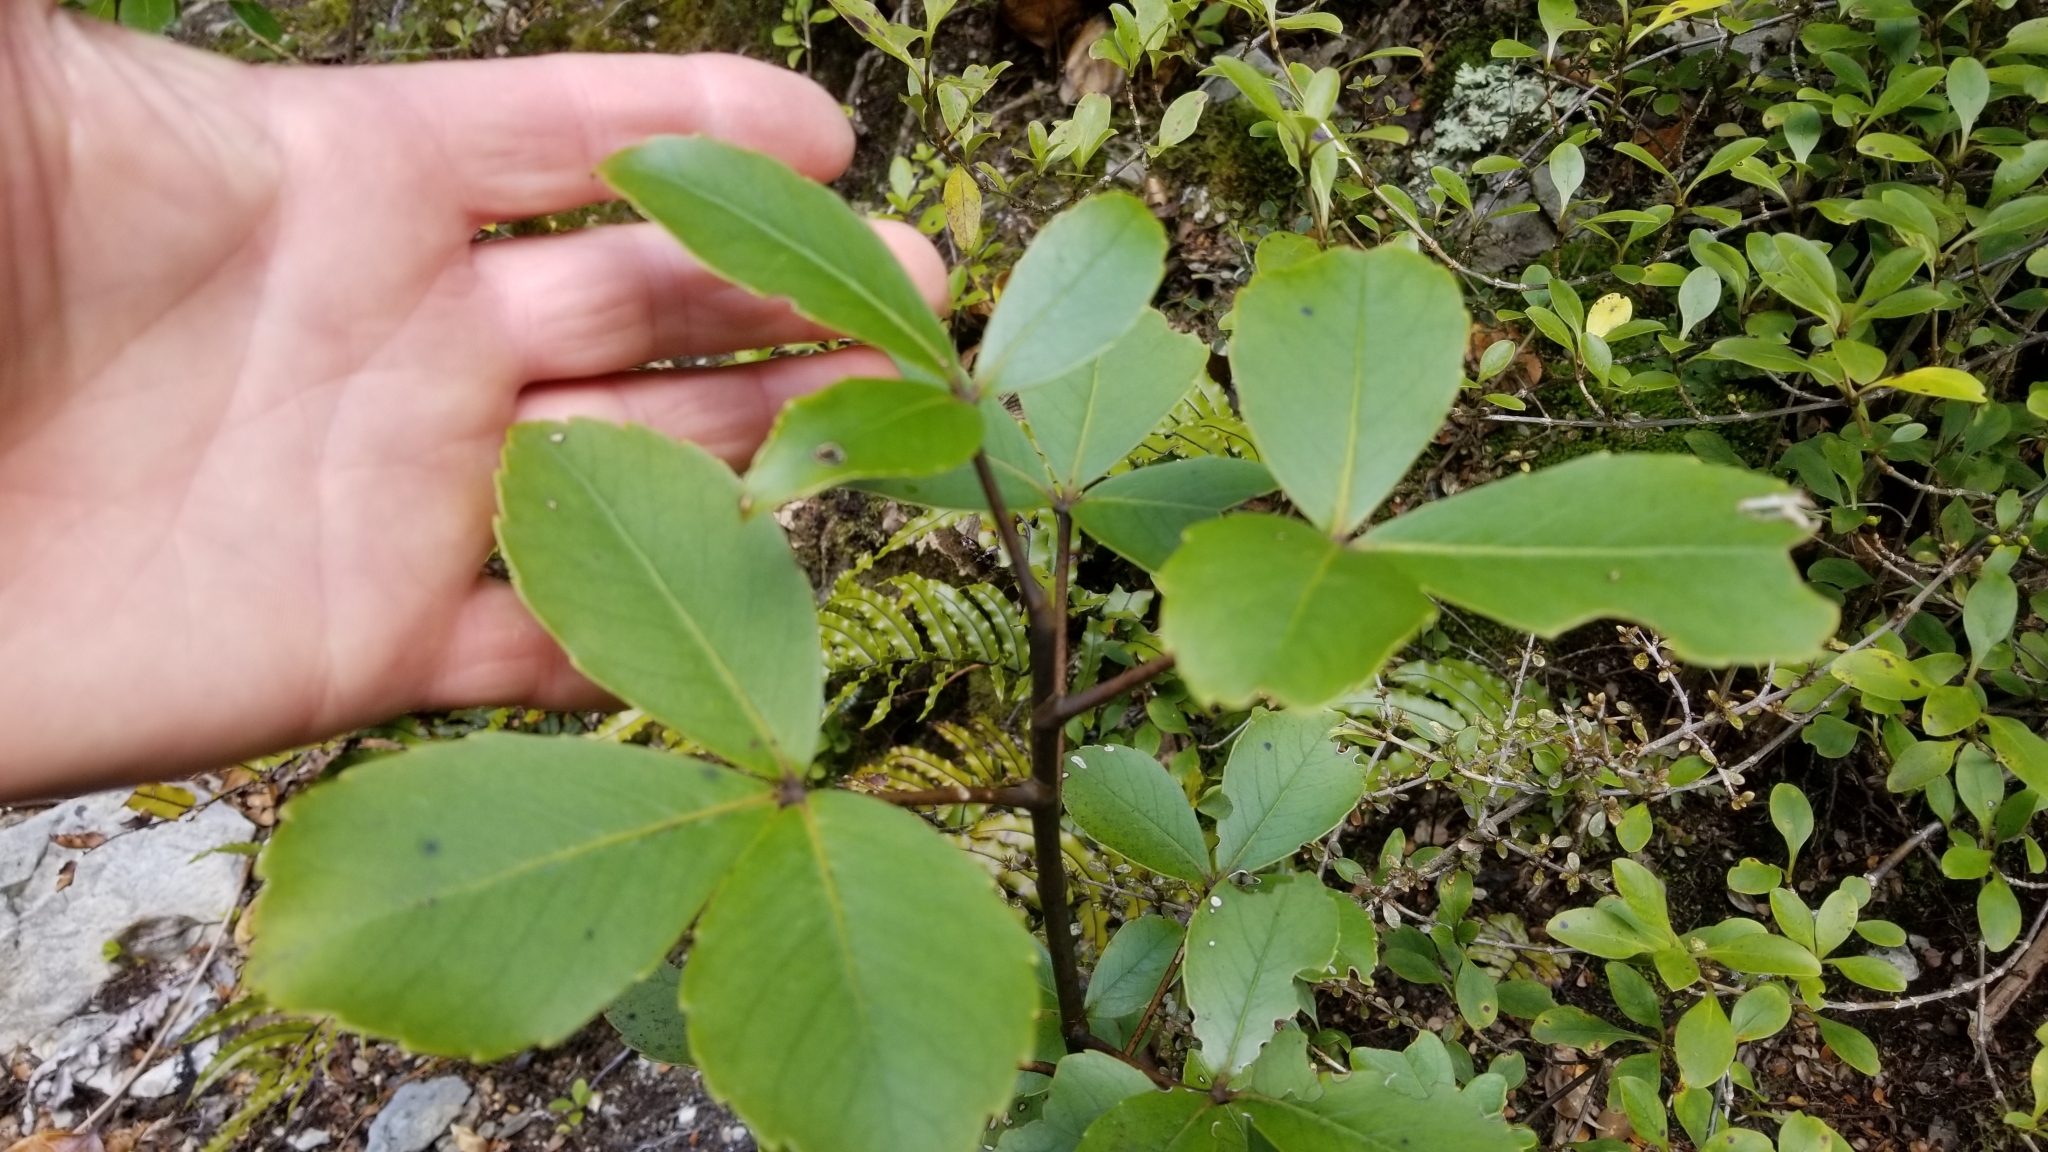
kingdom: Plantae
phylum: Tracheophyta
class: Magnoliopsida
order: Apiales
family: Araliaceae
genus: Neopanax
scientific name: Neopanax colensoi
